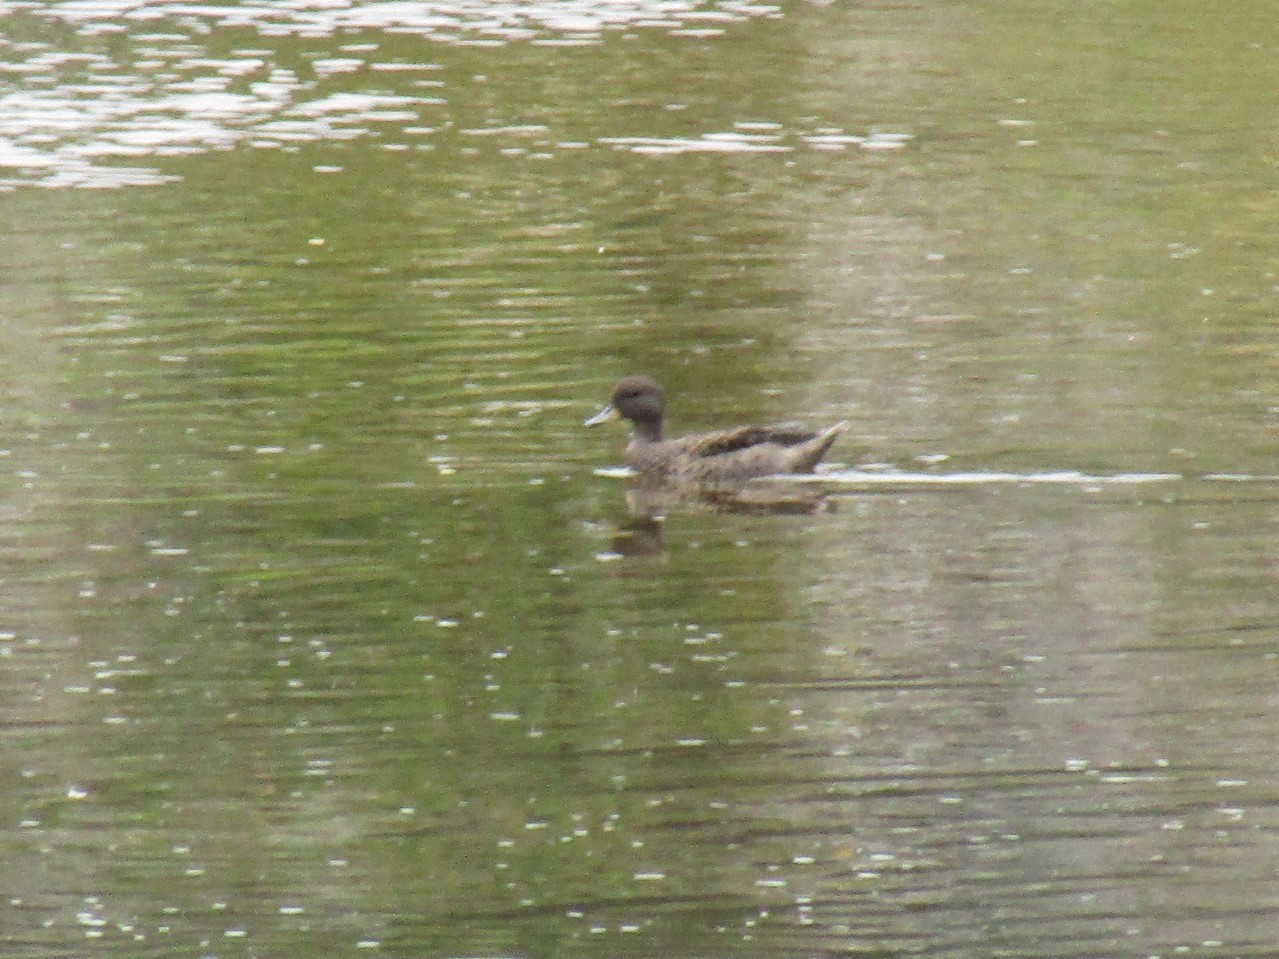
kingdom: Animalia
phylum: Chordata
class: Aves
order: Anseriformes
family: Anatidae
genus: Anas
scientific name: Anas flavirostris
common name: Yellow-billed teal
